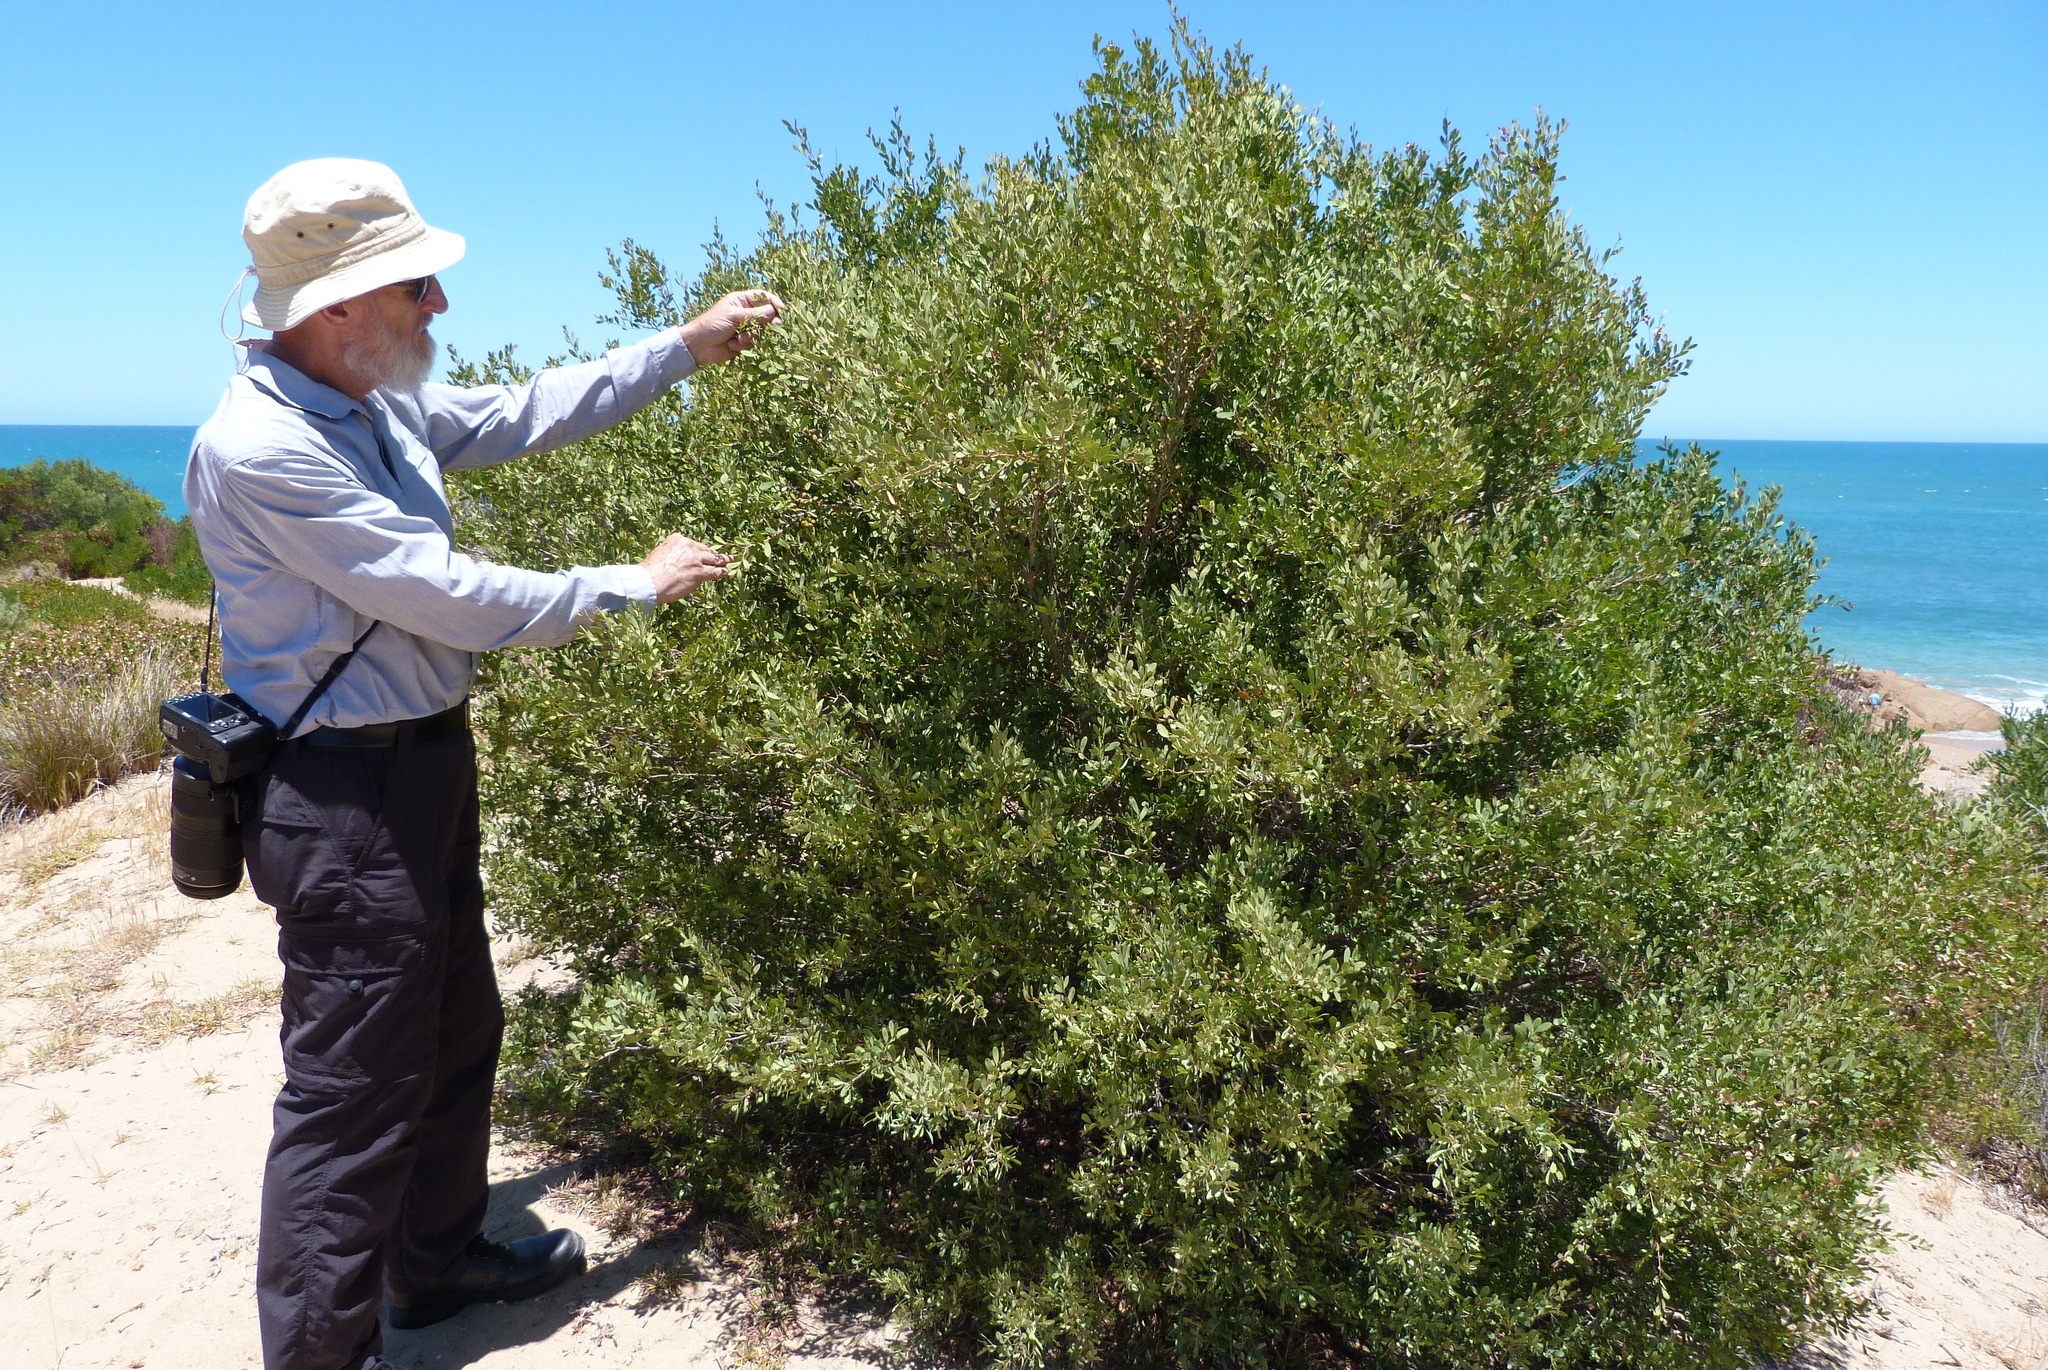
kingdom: Plantae
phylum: Tracheophyta
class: Magnoliopsida
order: Myrtales
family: Myrtaceae
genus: Leptospermum
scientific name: Leptospermum laevigatum
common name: Australian teatree
